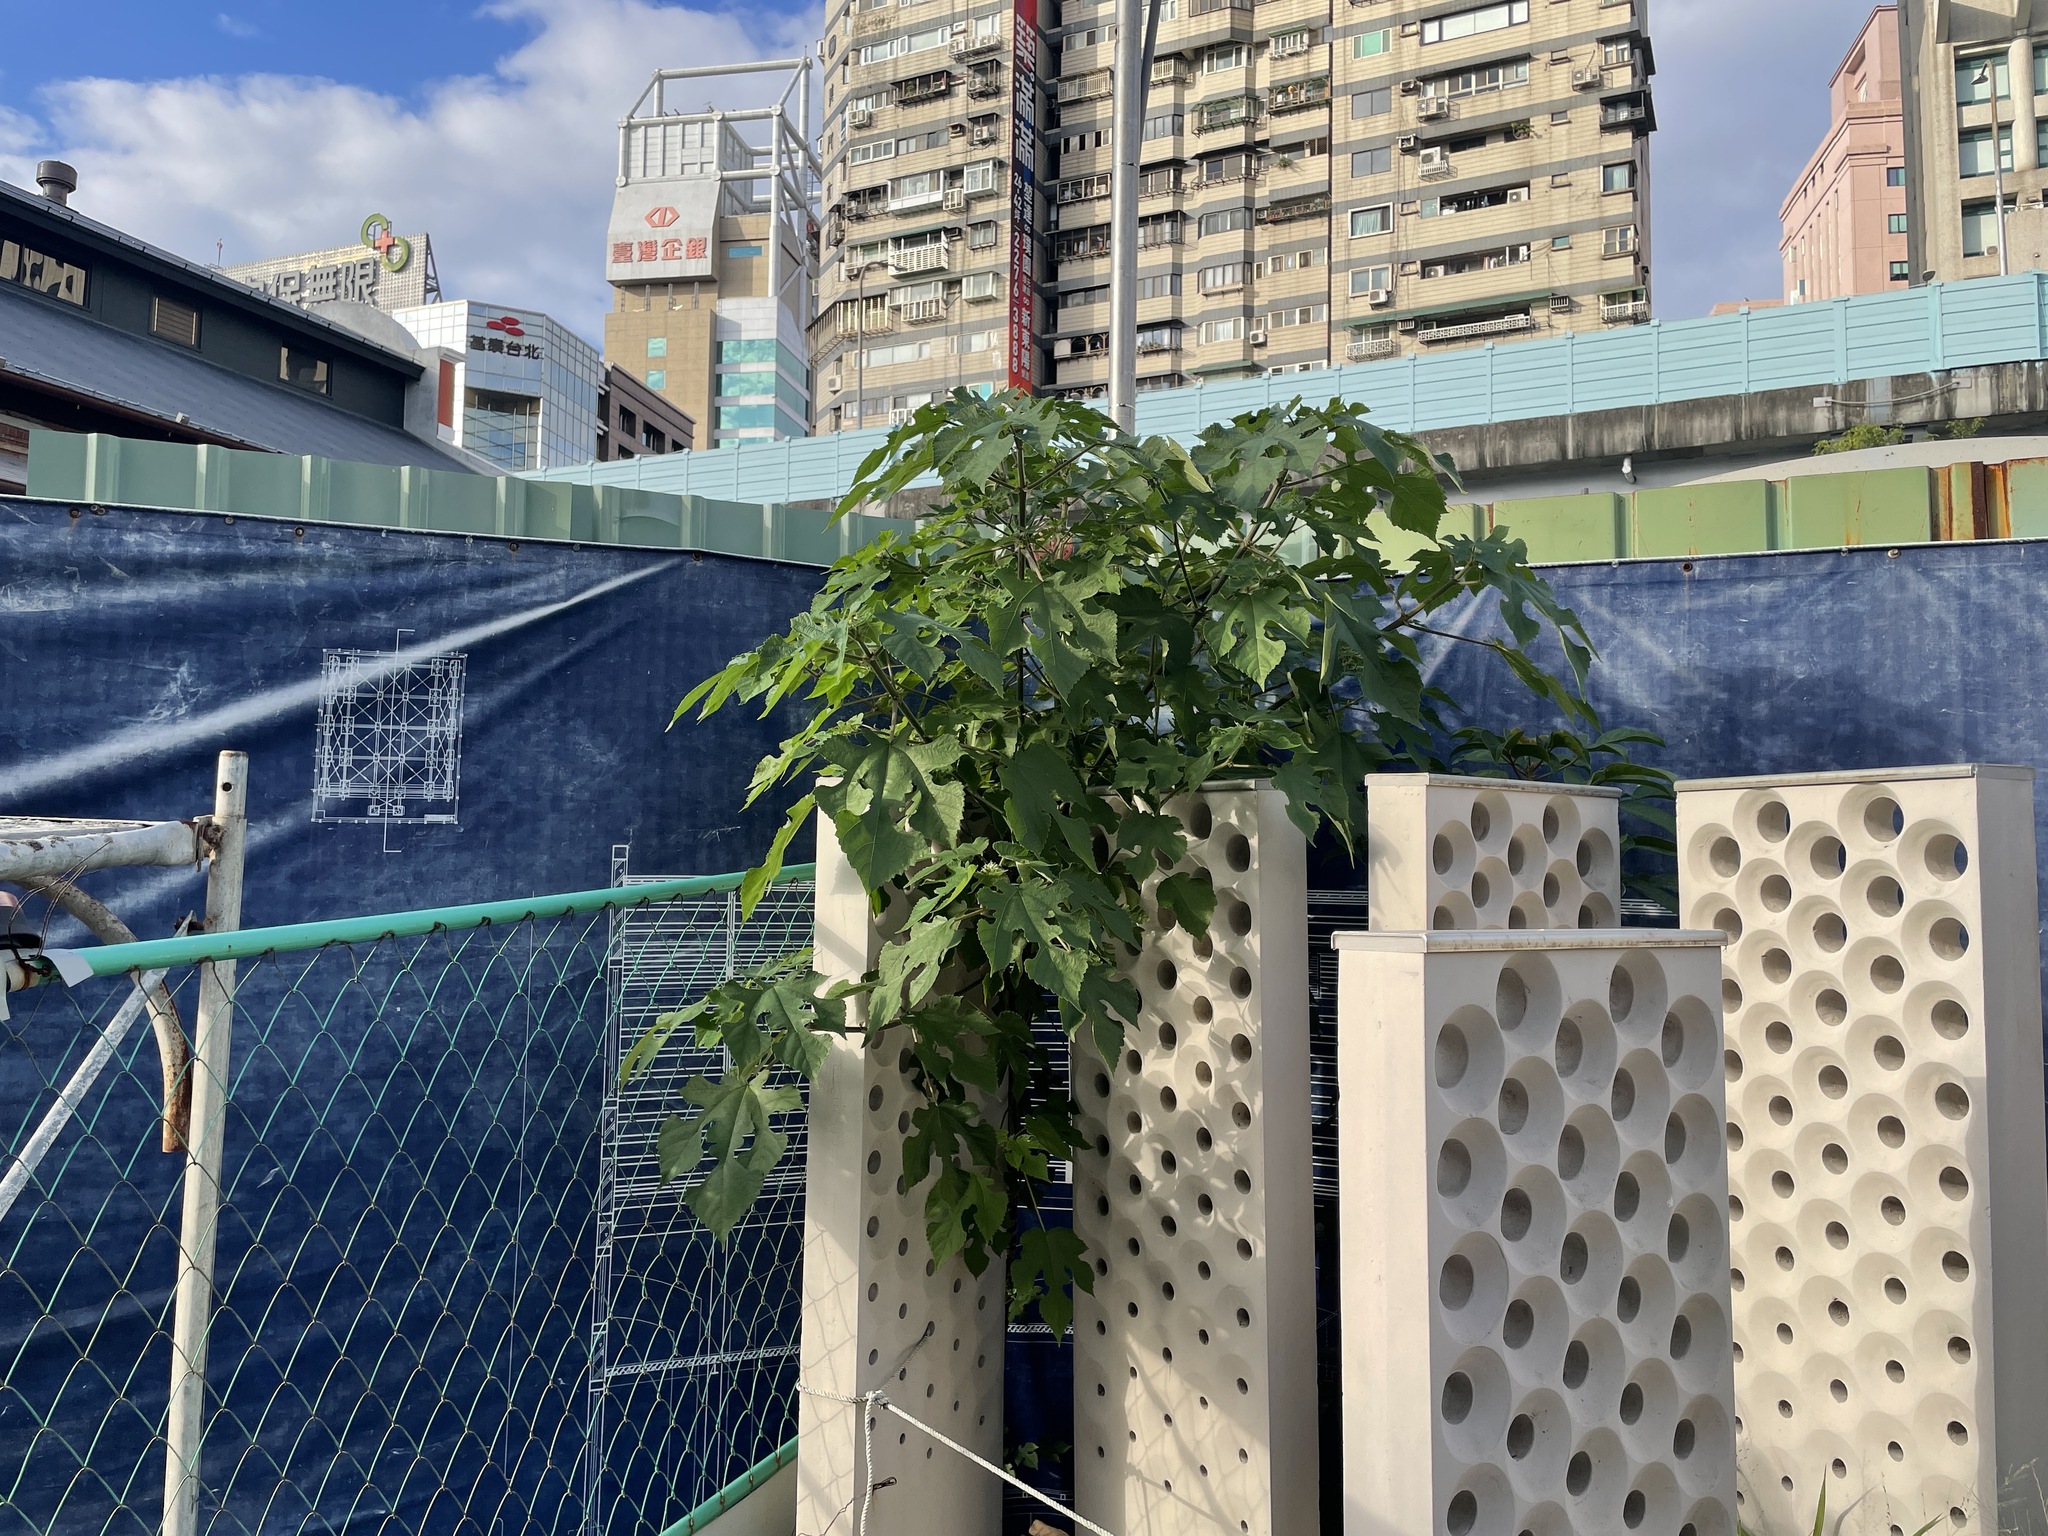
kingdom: Plantae
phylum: Tracheophyta
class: Magnoliopsida
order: Rosales
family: Moraceae
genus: Broussonetia
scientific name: Broussonetia papyrifera
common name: Paper mulberry
